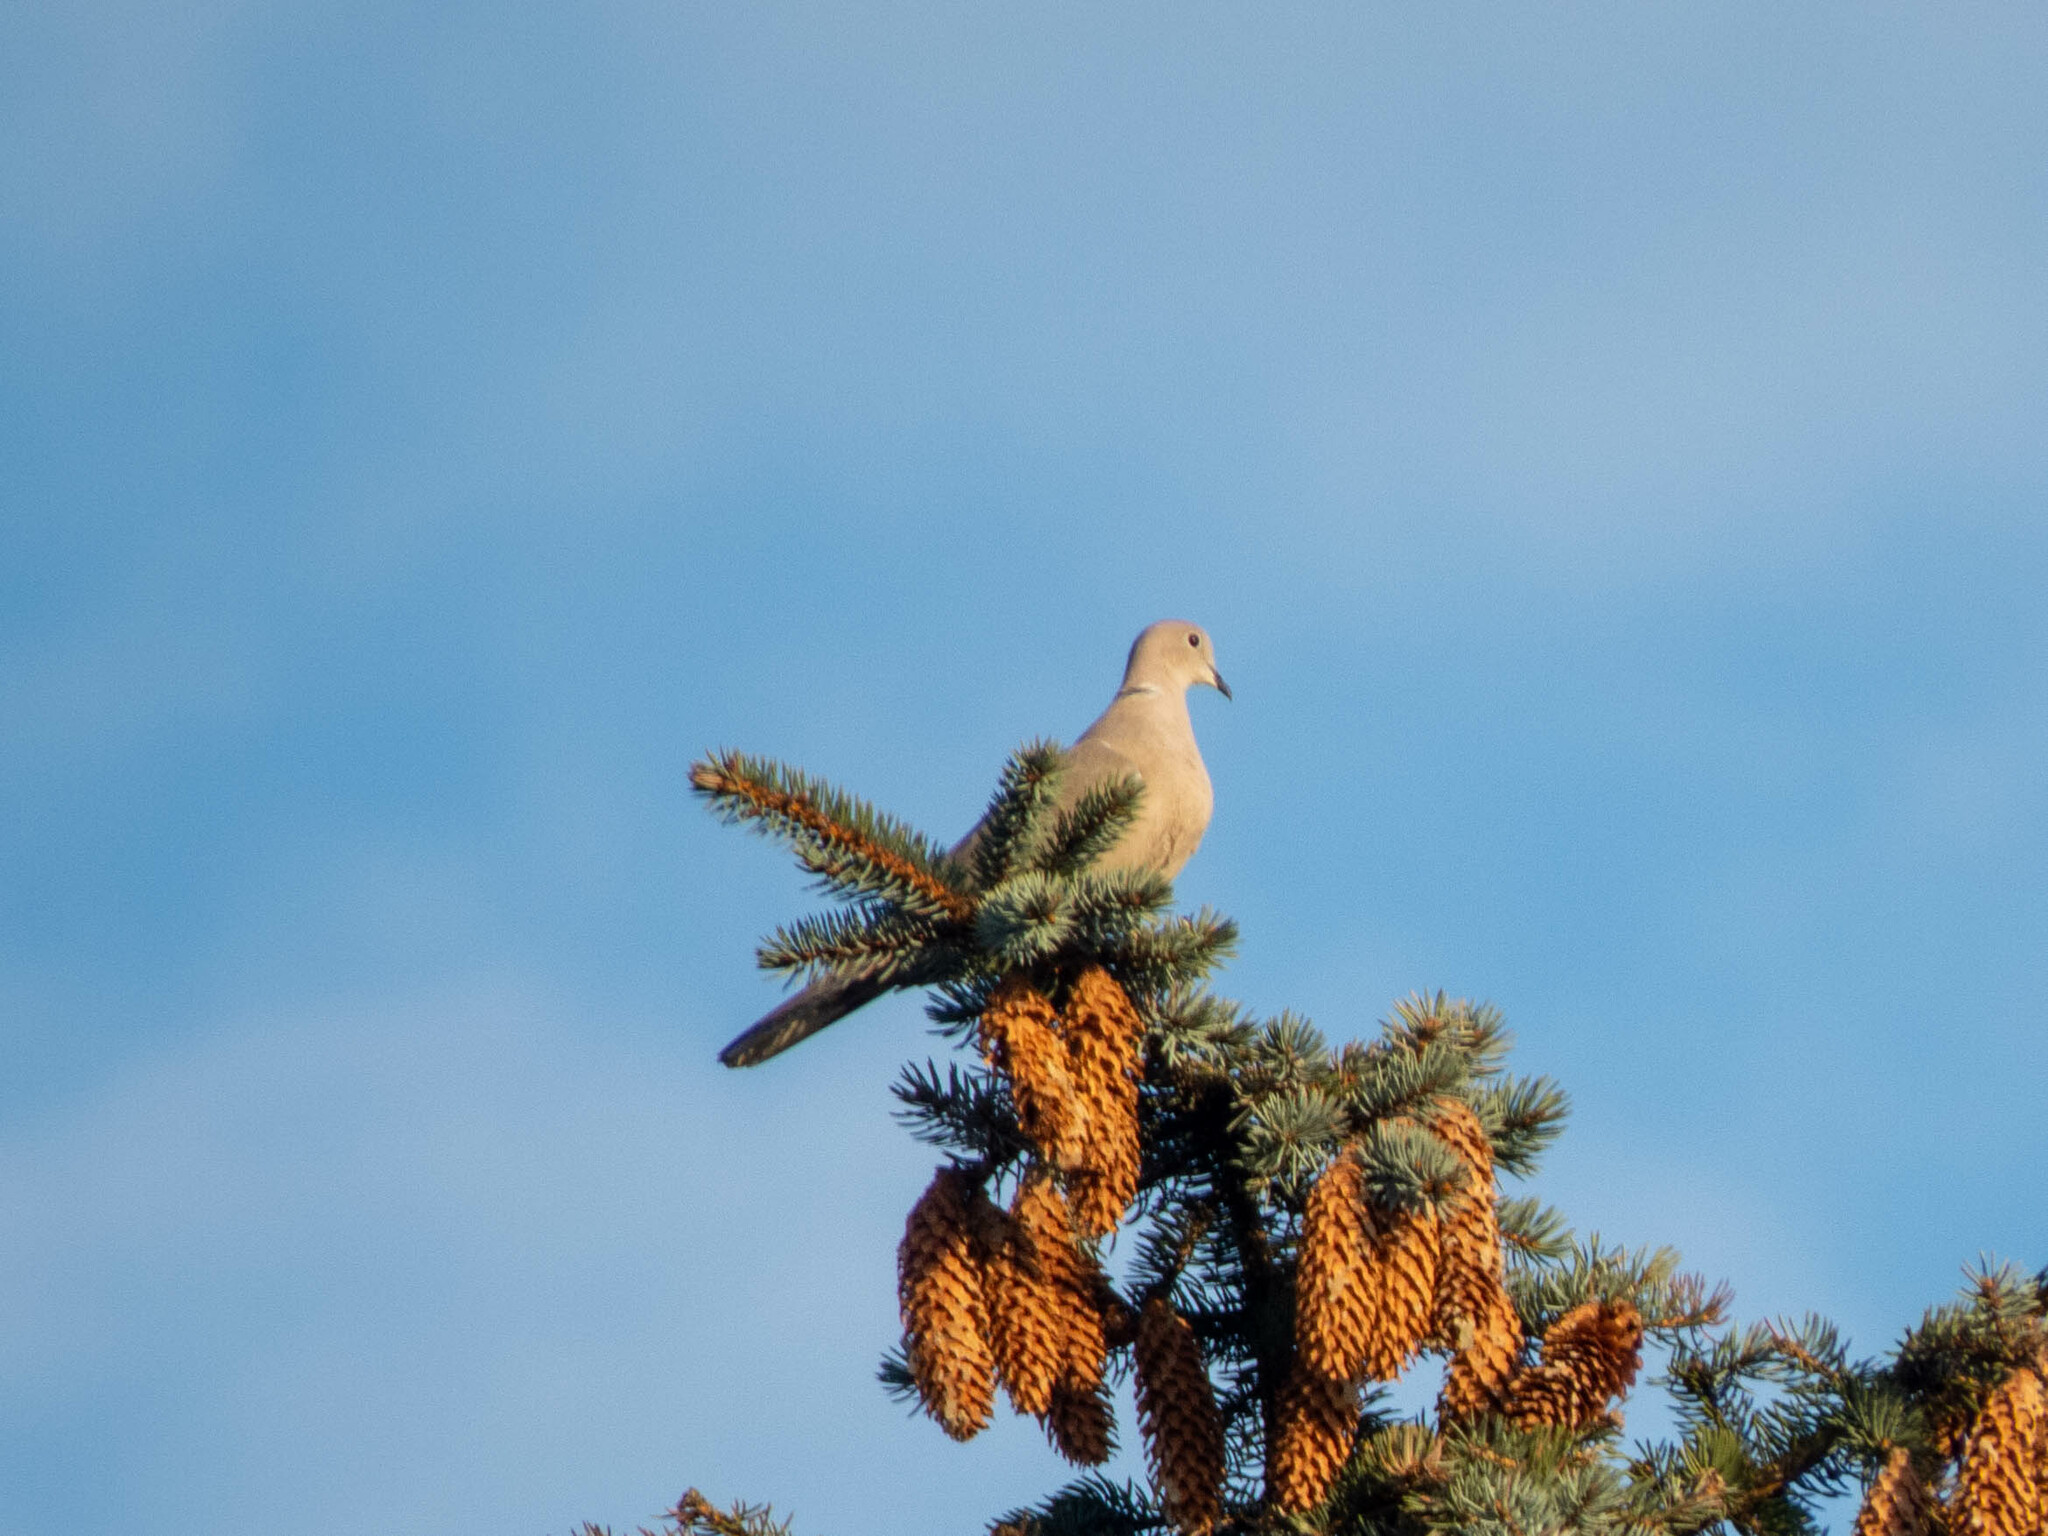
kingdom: Animalia
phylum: Chordata
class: Aves
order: Columbiformes
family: Columbidae
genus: Streptopelia
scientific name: Streptopelia decaocto
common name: Eurasian collared dove
